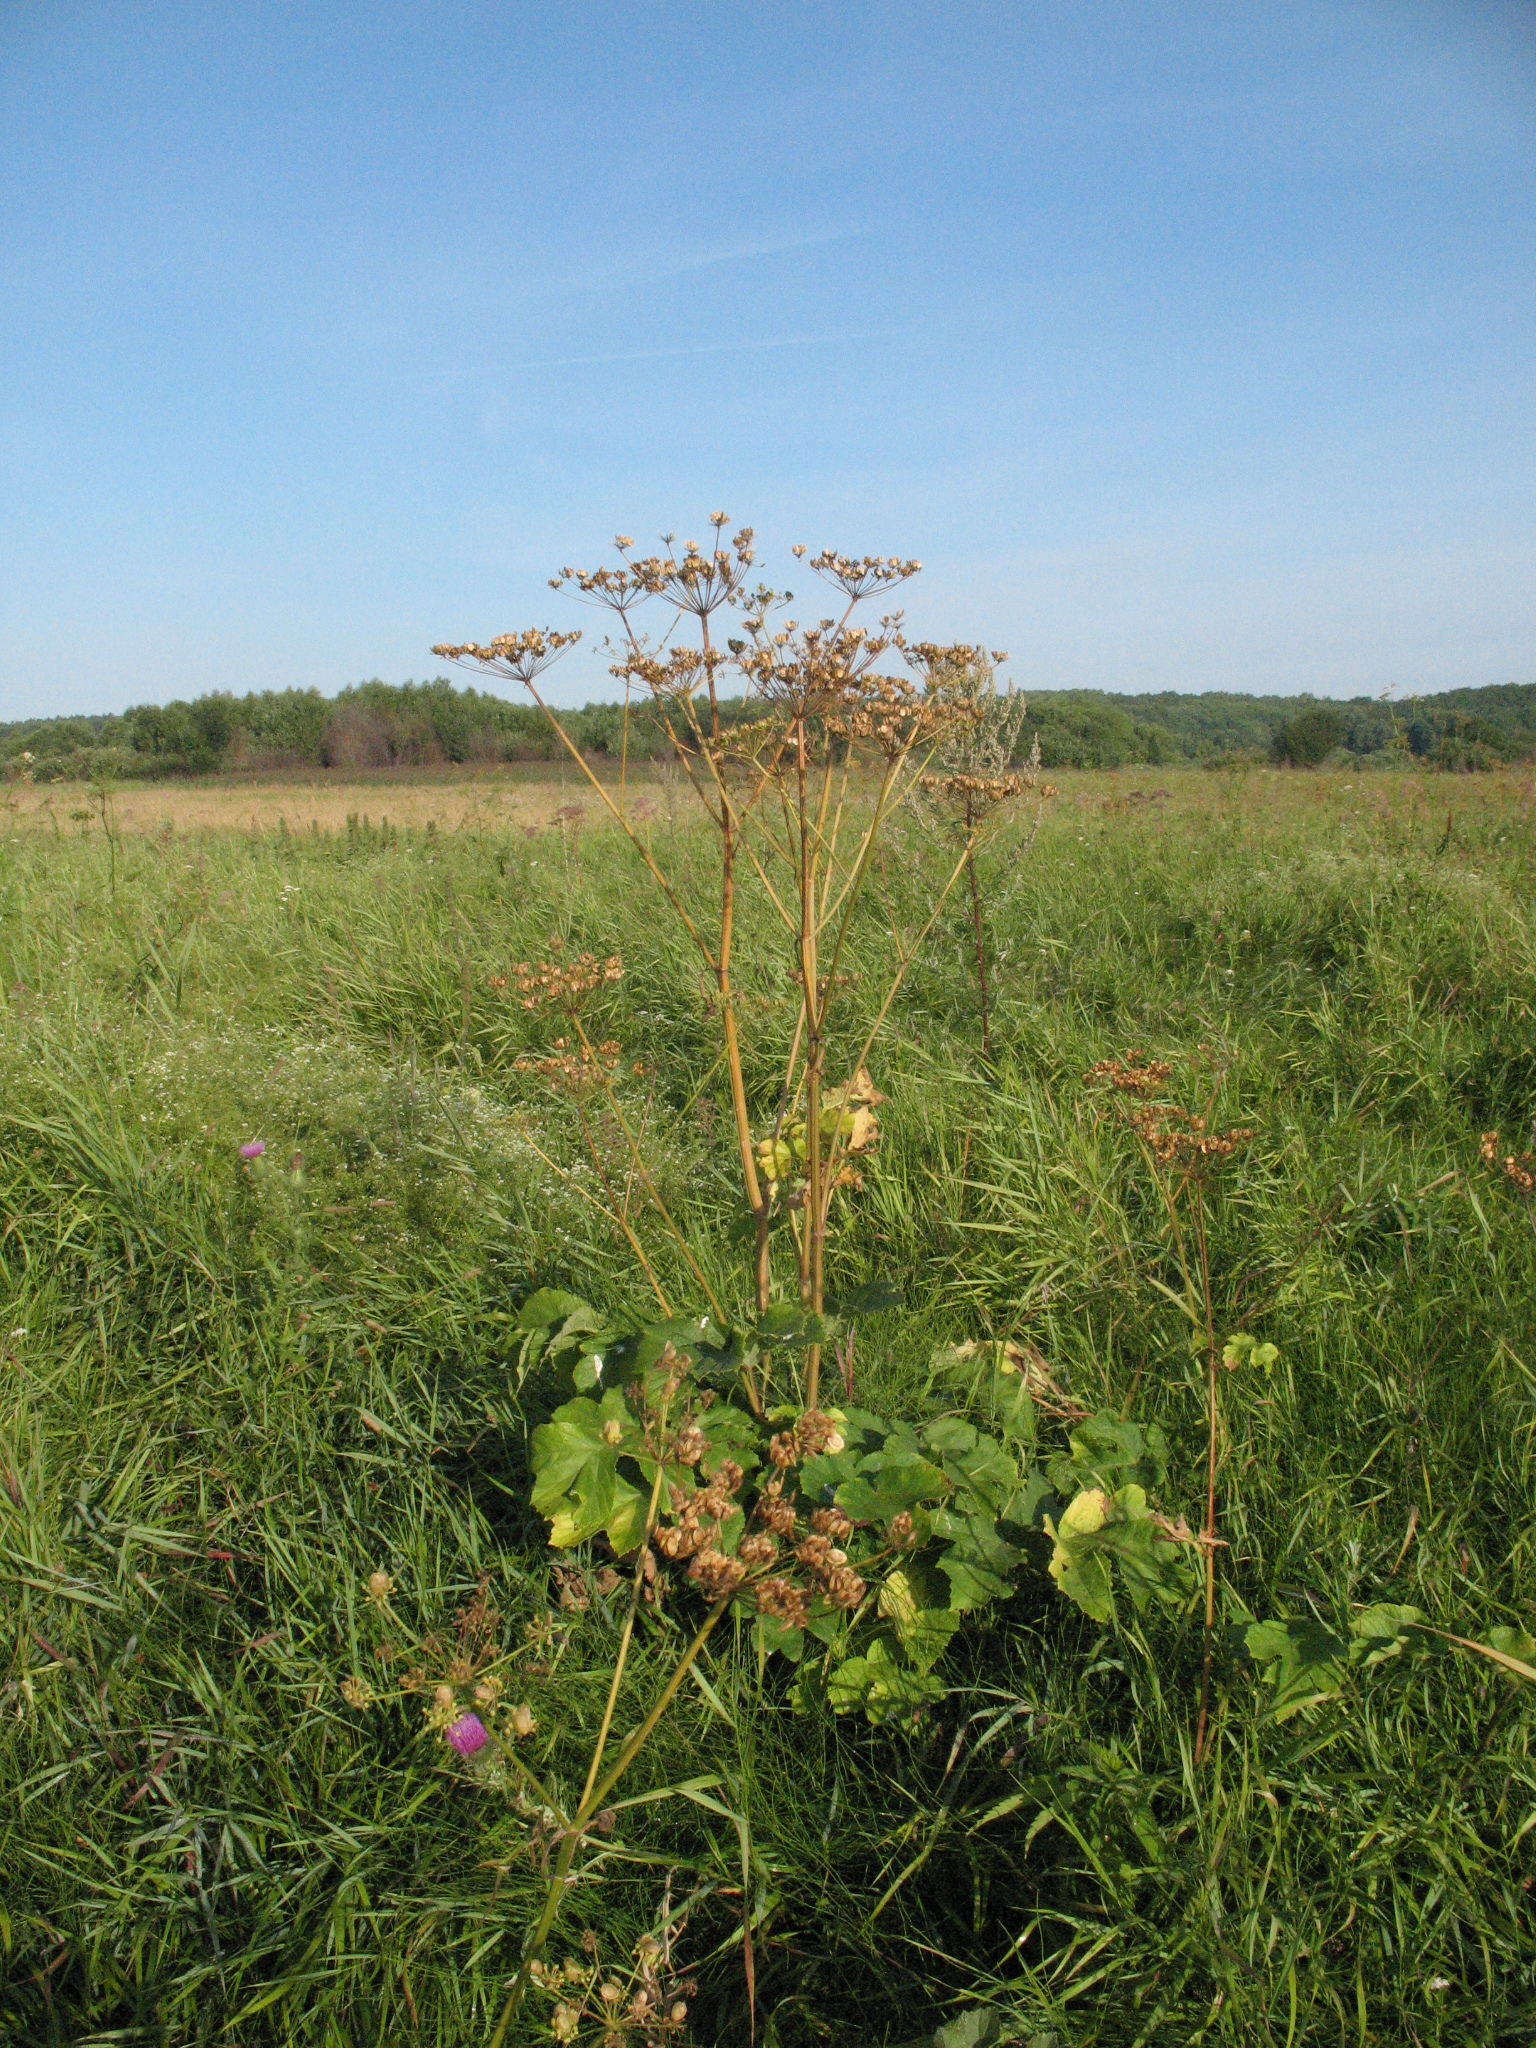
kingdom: Plantae
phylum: Tracheophyta
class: Magnoliopsida
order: Apiales
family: Apiaceae
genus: Heracleum
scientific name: Heracleum sphondylium
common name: Hogweed
